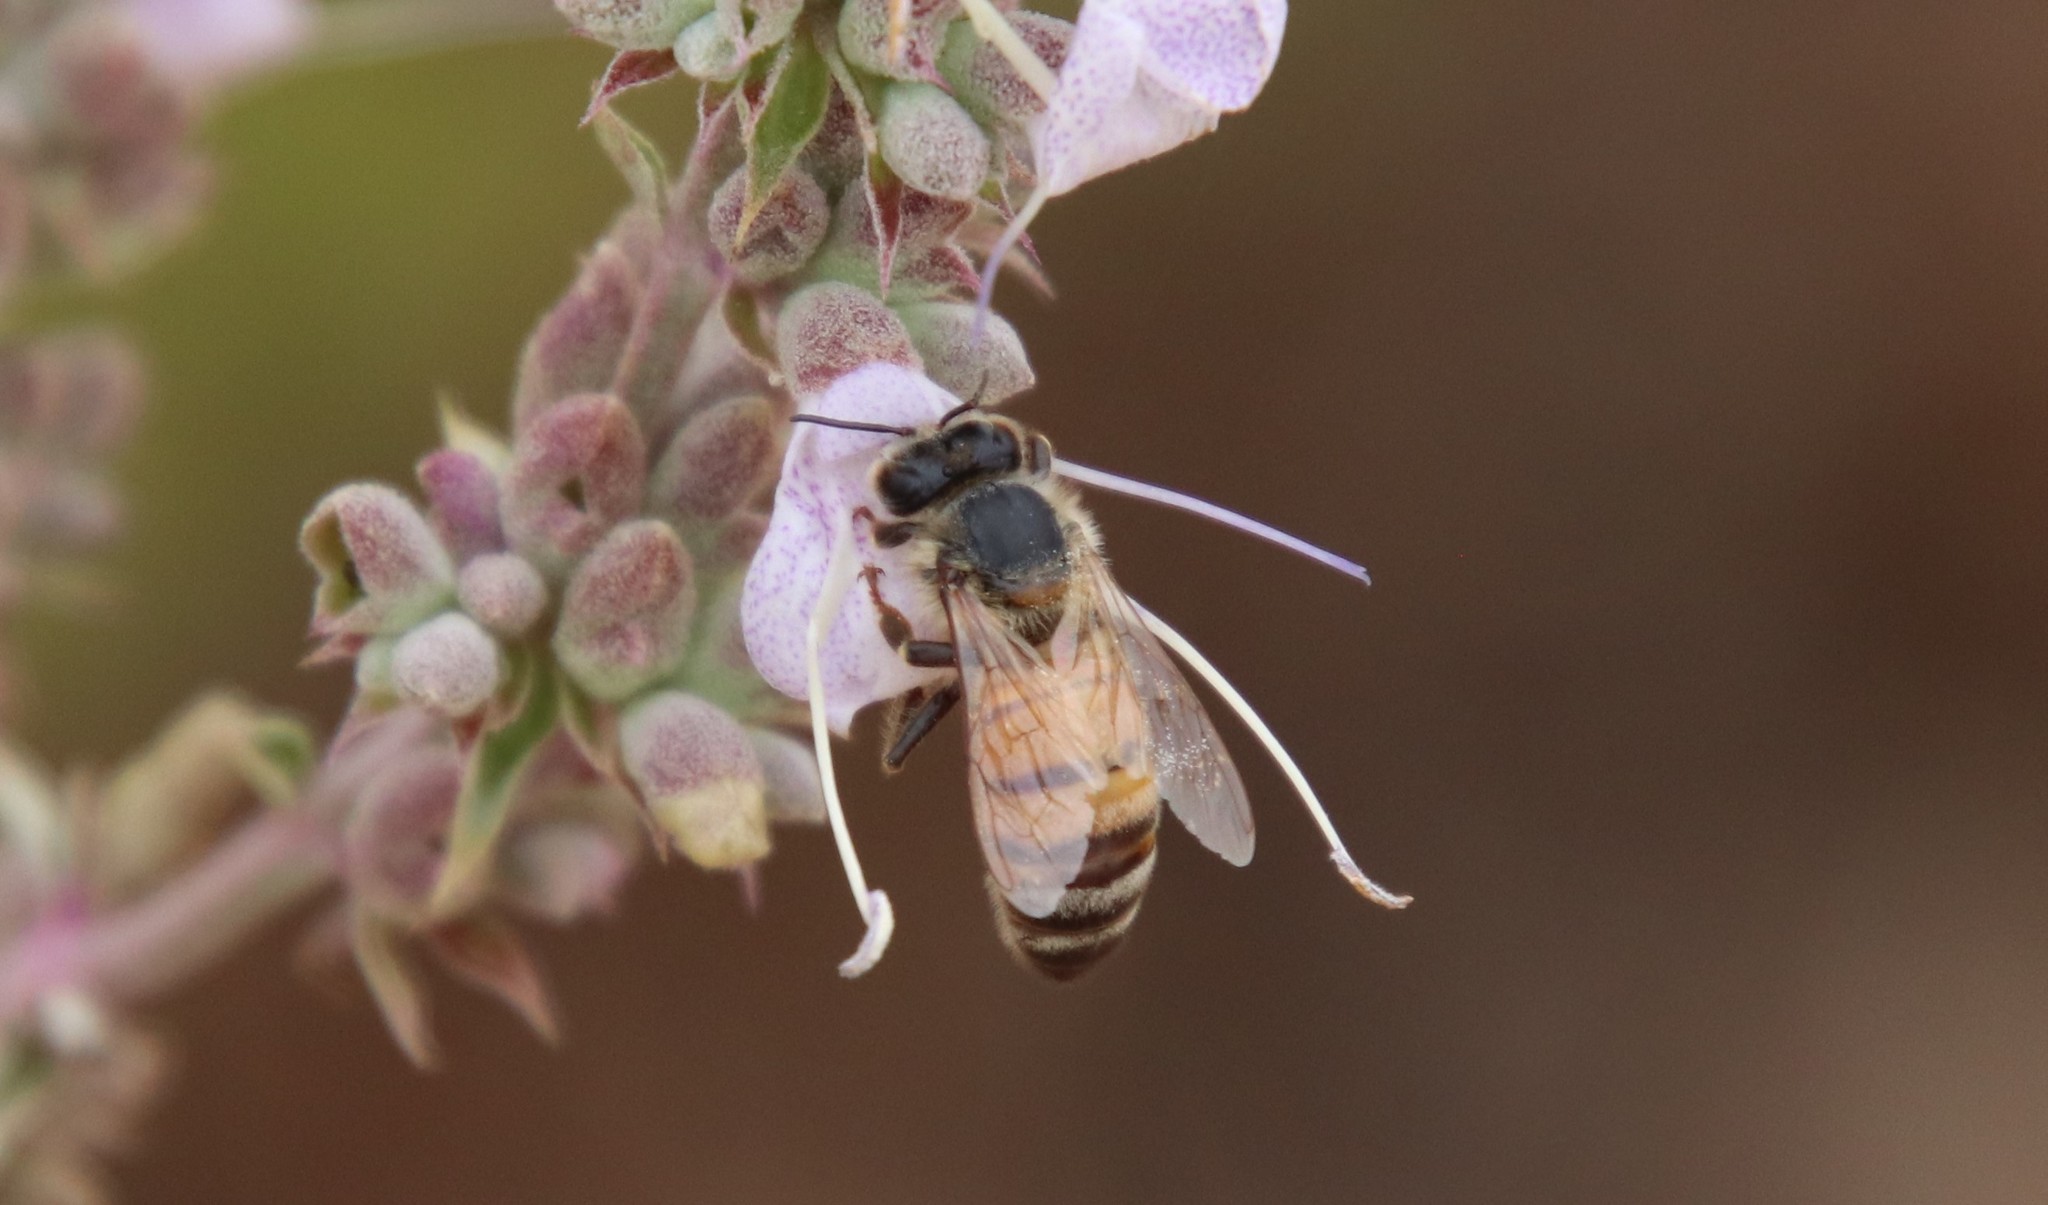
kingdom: Animalia
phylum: Arthropoda
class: Insecta
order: Hymenoptera
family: Apidae
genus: Apis
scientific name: Apis mellifera
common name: Honey bee
